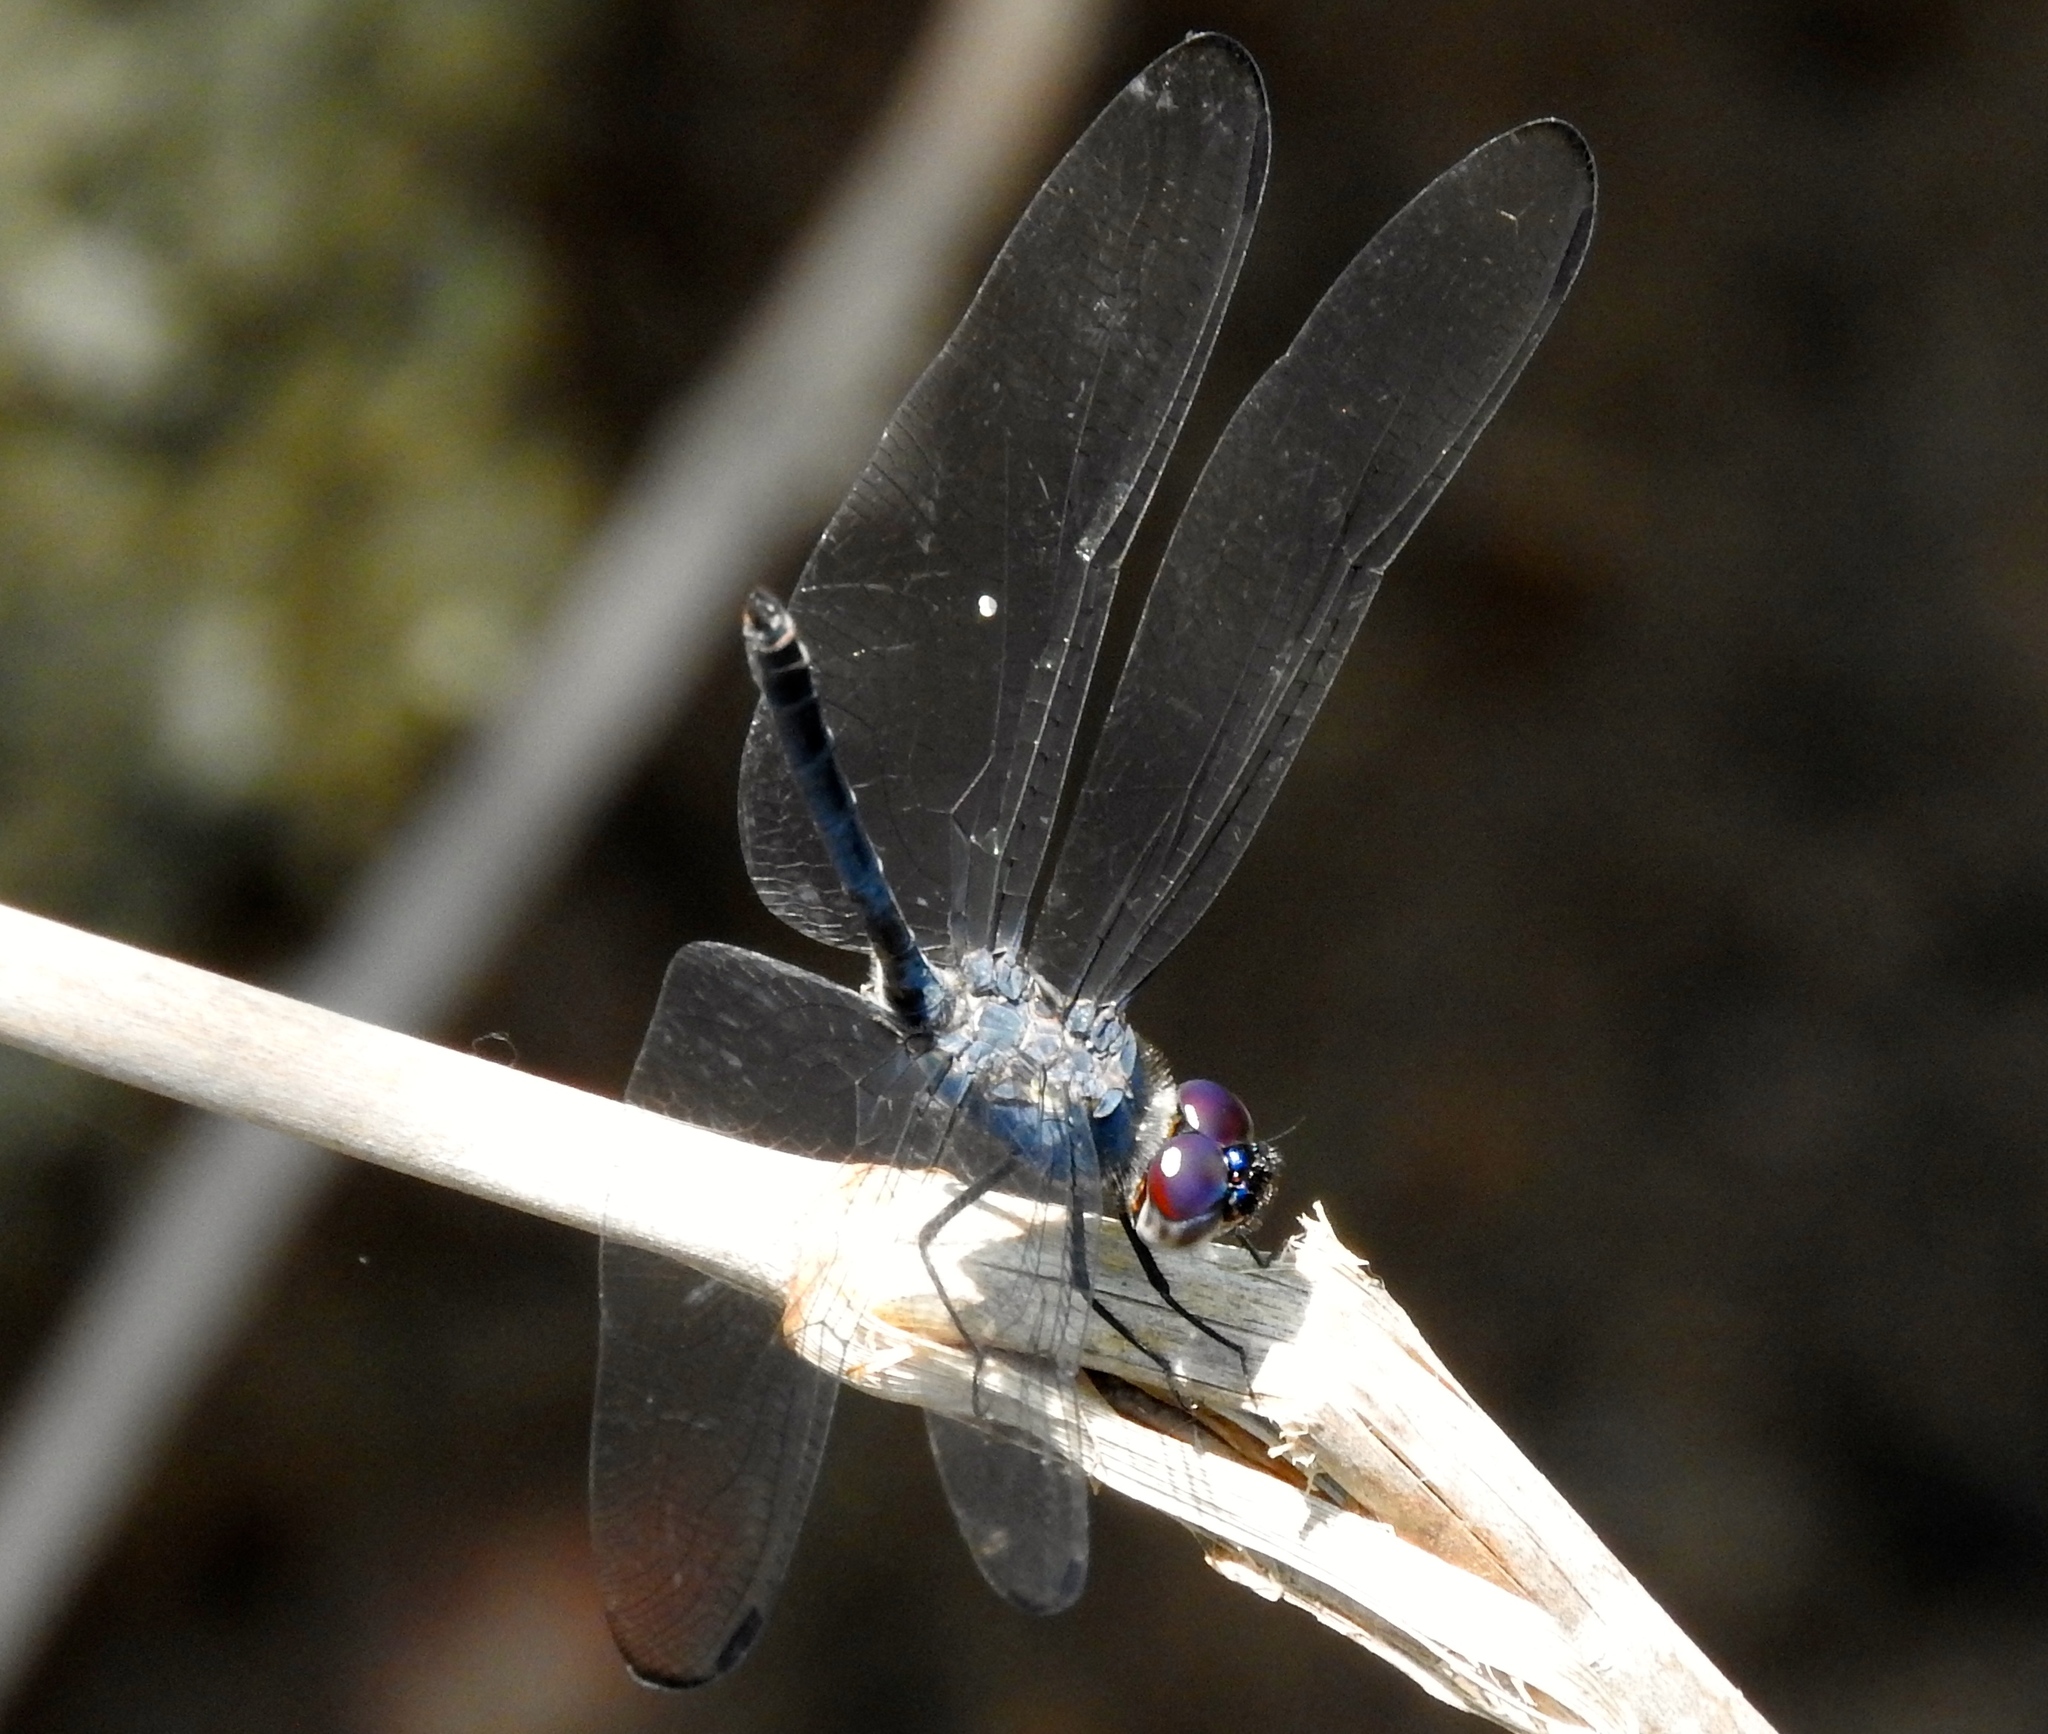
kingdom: Animalia
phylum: Arthropoda
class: Insecta
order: Odonata
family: Libellulidae
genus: Dythemis
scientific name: Dythemis nigrescens
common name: Black setwing
